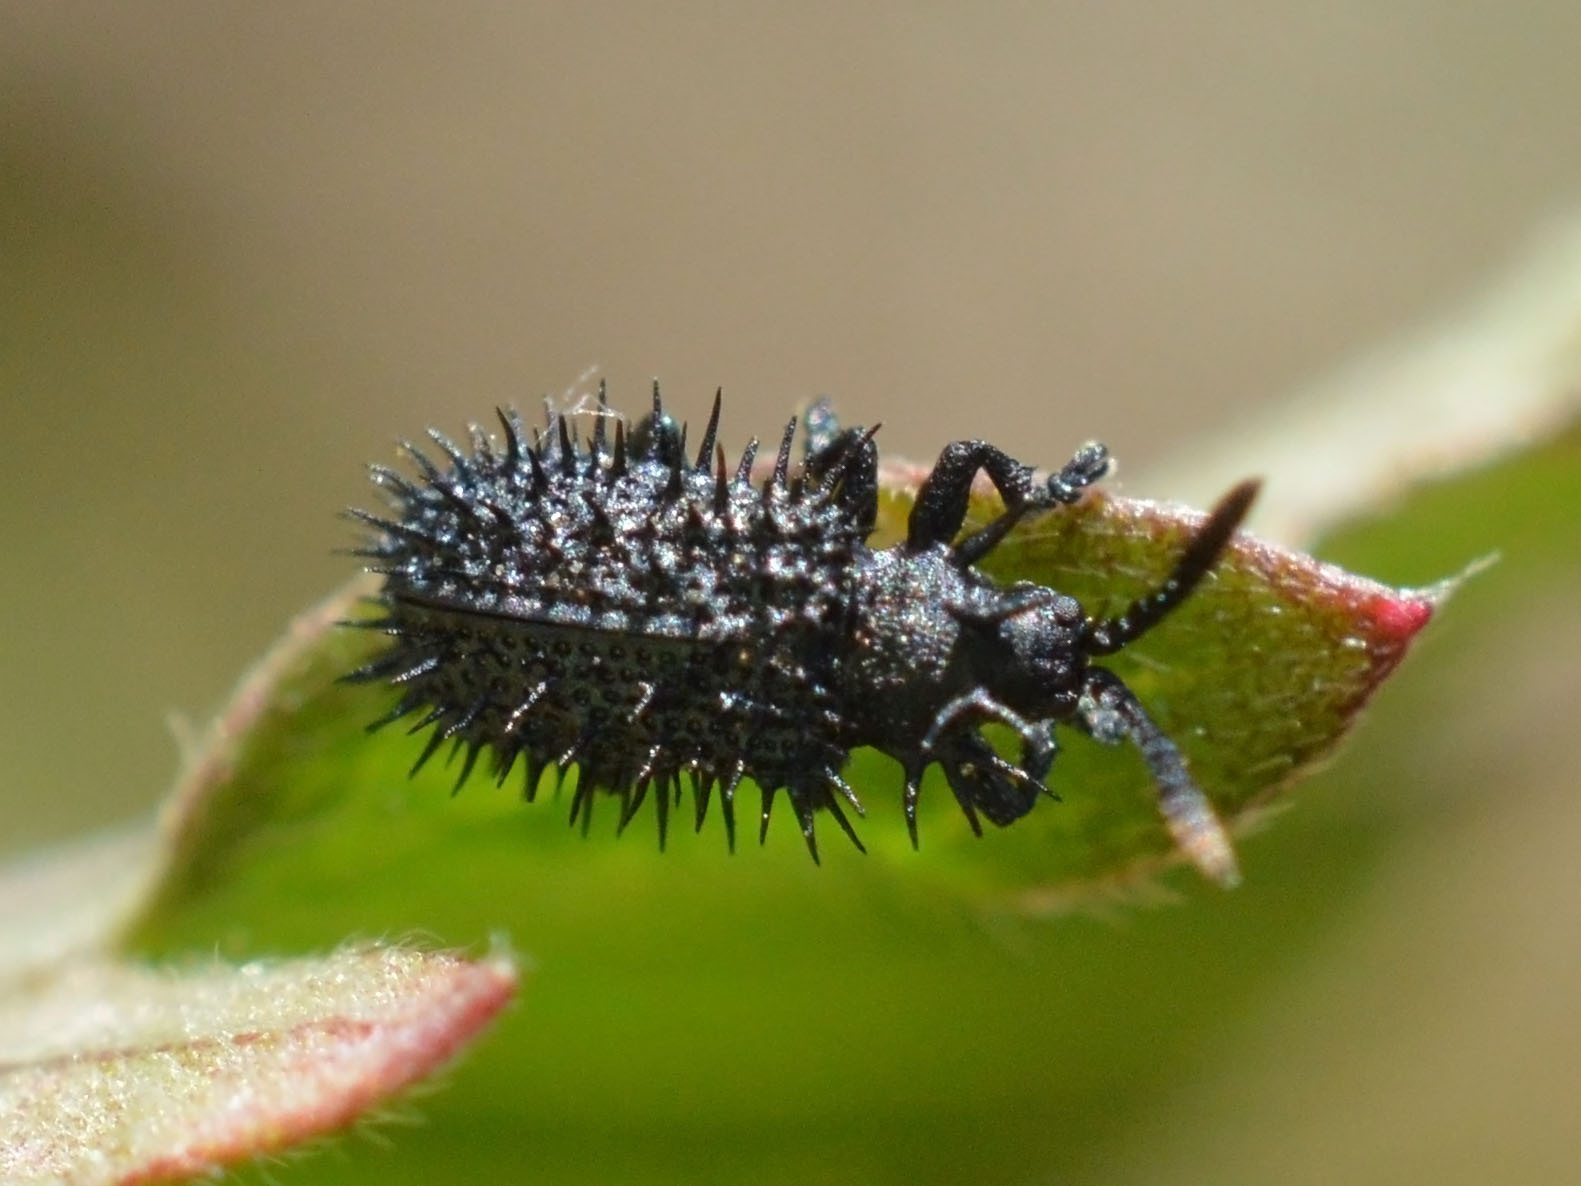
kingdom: Animalia
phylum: Arthropoda
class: Insecta
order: Coleoptera
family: Chrysomelidae
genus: Hispa
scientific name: Hispa atra
